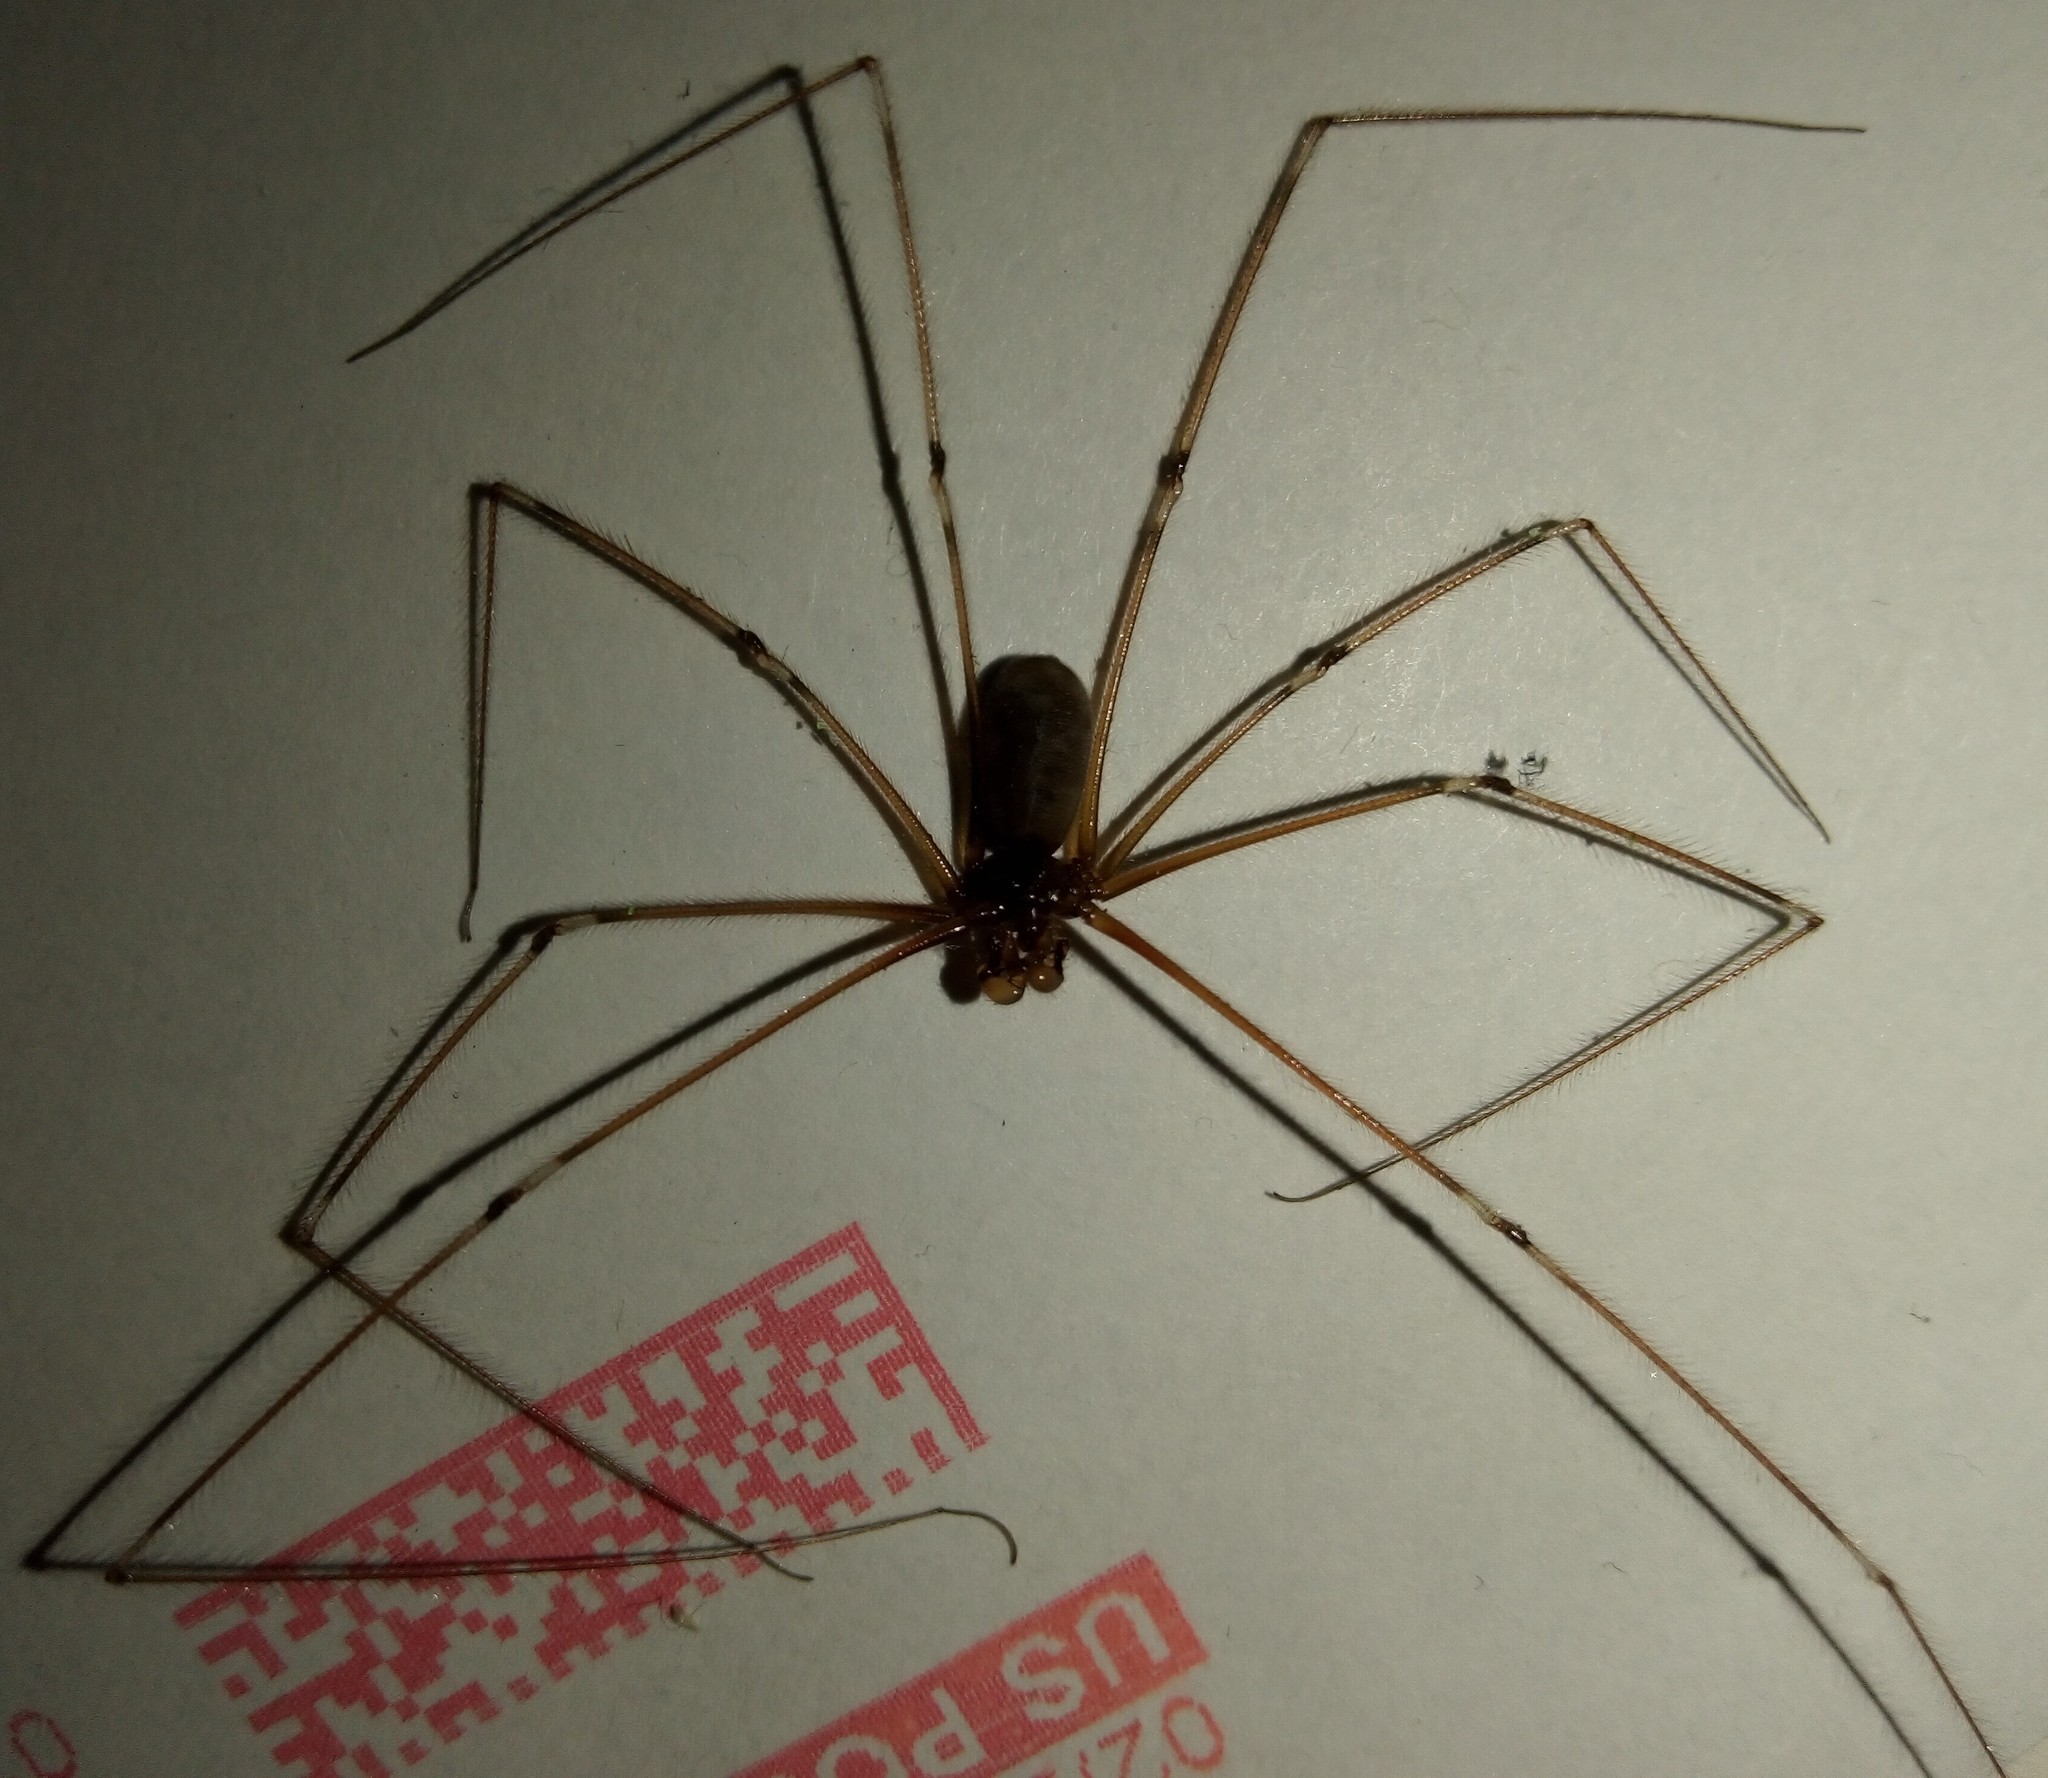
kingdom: Animalia
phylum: Arthropoda
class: Arachnida
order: Araneae
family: Pholcidae
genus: Pholcus
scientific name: Pholcus phalangioides
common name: Longbodied cellar spider
